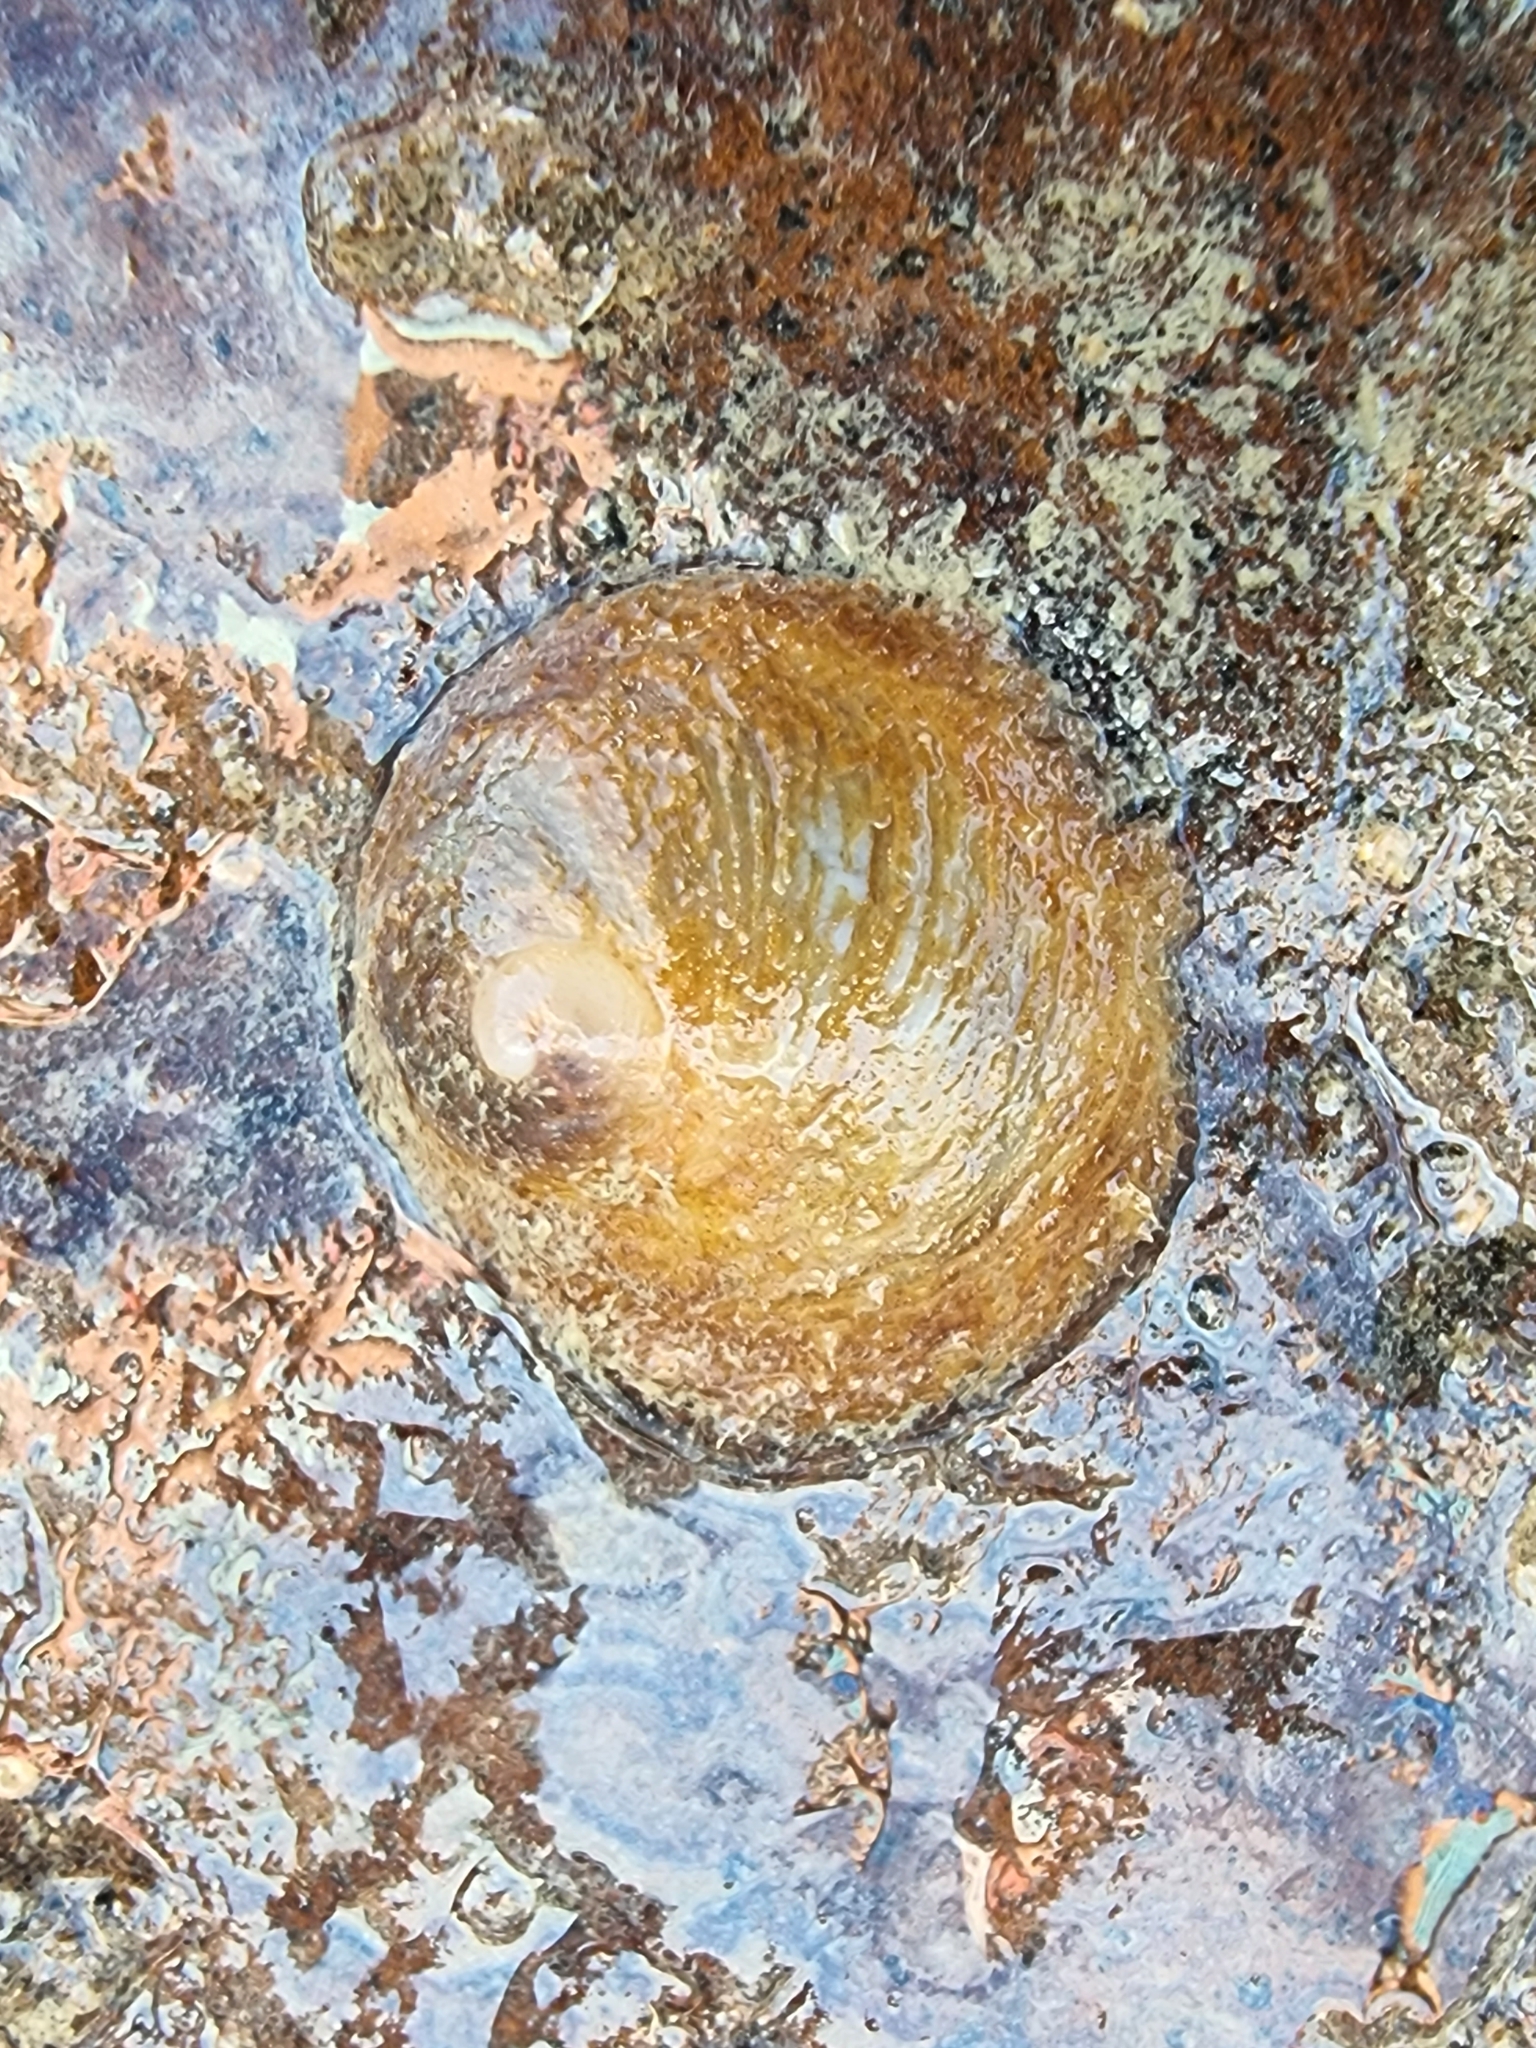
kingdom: Animalia
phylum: Mollusca
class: Gastropoda
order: Littorinimorpha
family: Calyptraeidae
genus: Sigapatella
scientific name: Sigapatella novaezelandiae
